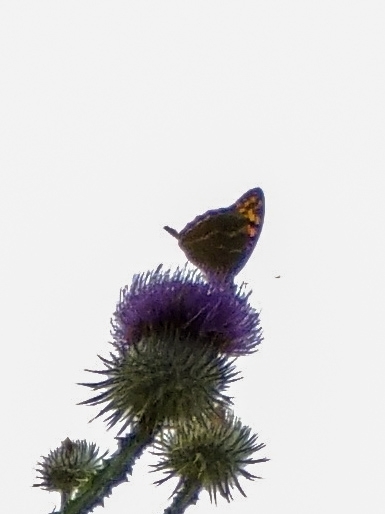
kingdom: Animalia
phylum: Arthropoda
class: Insecta
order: Lepidoptera
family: Nymphalidae
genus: Damora
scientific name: Damora pandora
